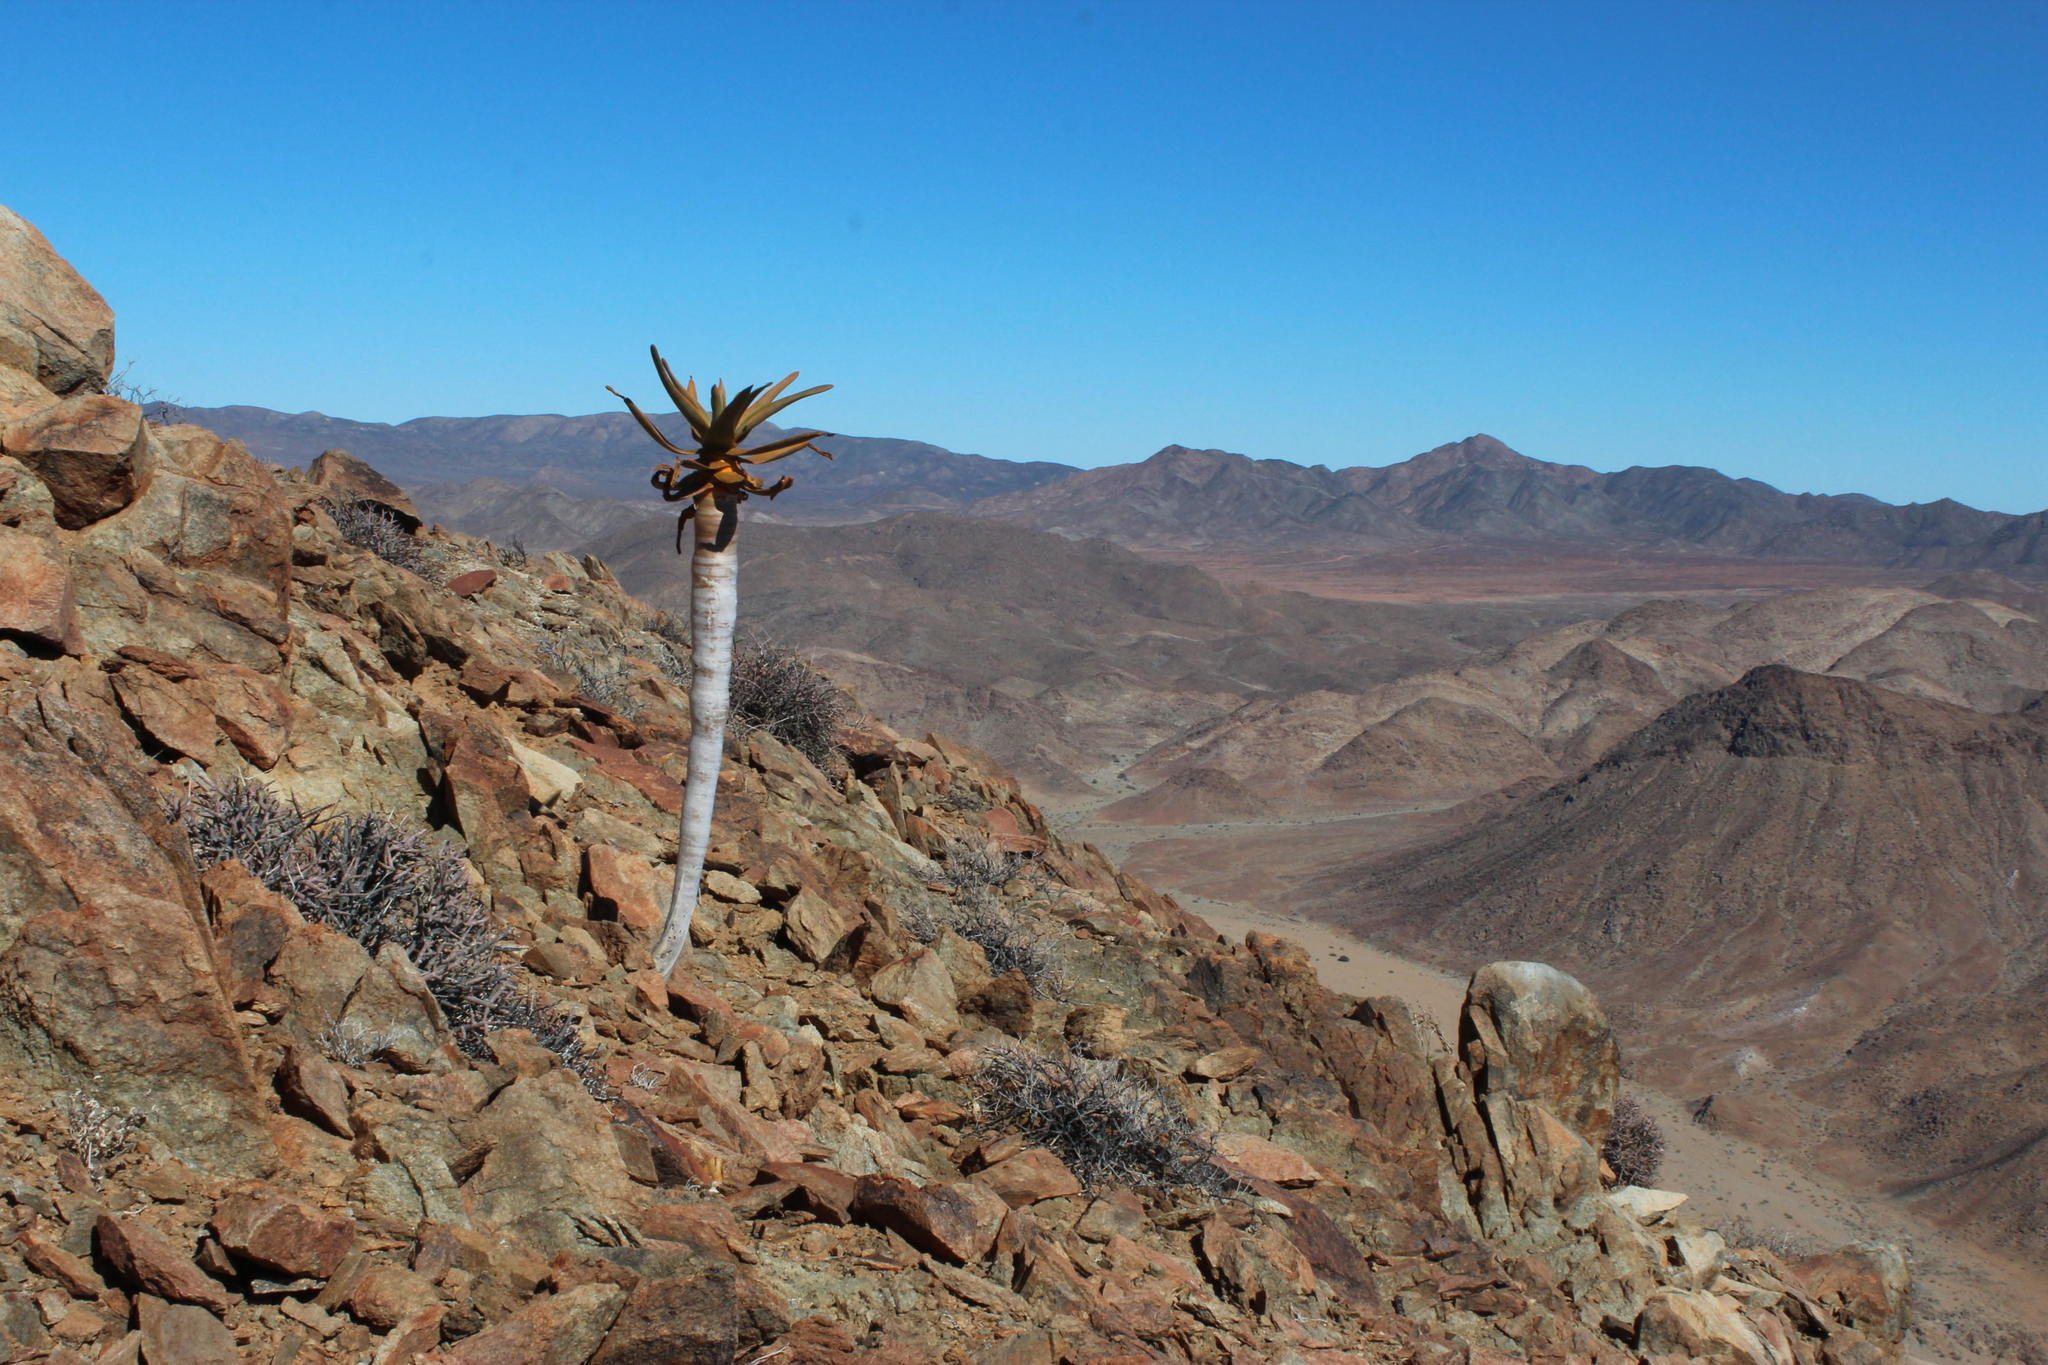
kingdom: Plantae
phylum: Tracheophyta
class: Liliopsida
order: Asparagales
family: Asphodelaceae
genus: Aloidendron
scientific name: Aloidendron dichotomum
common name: Quiver tree
